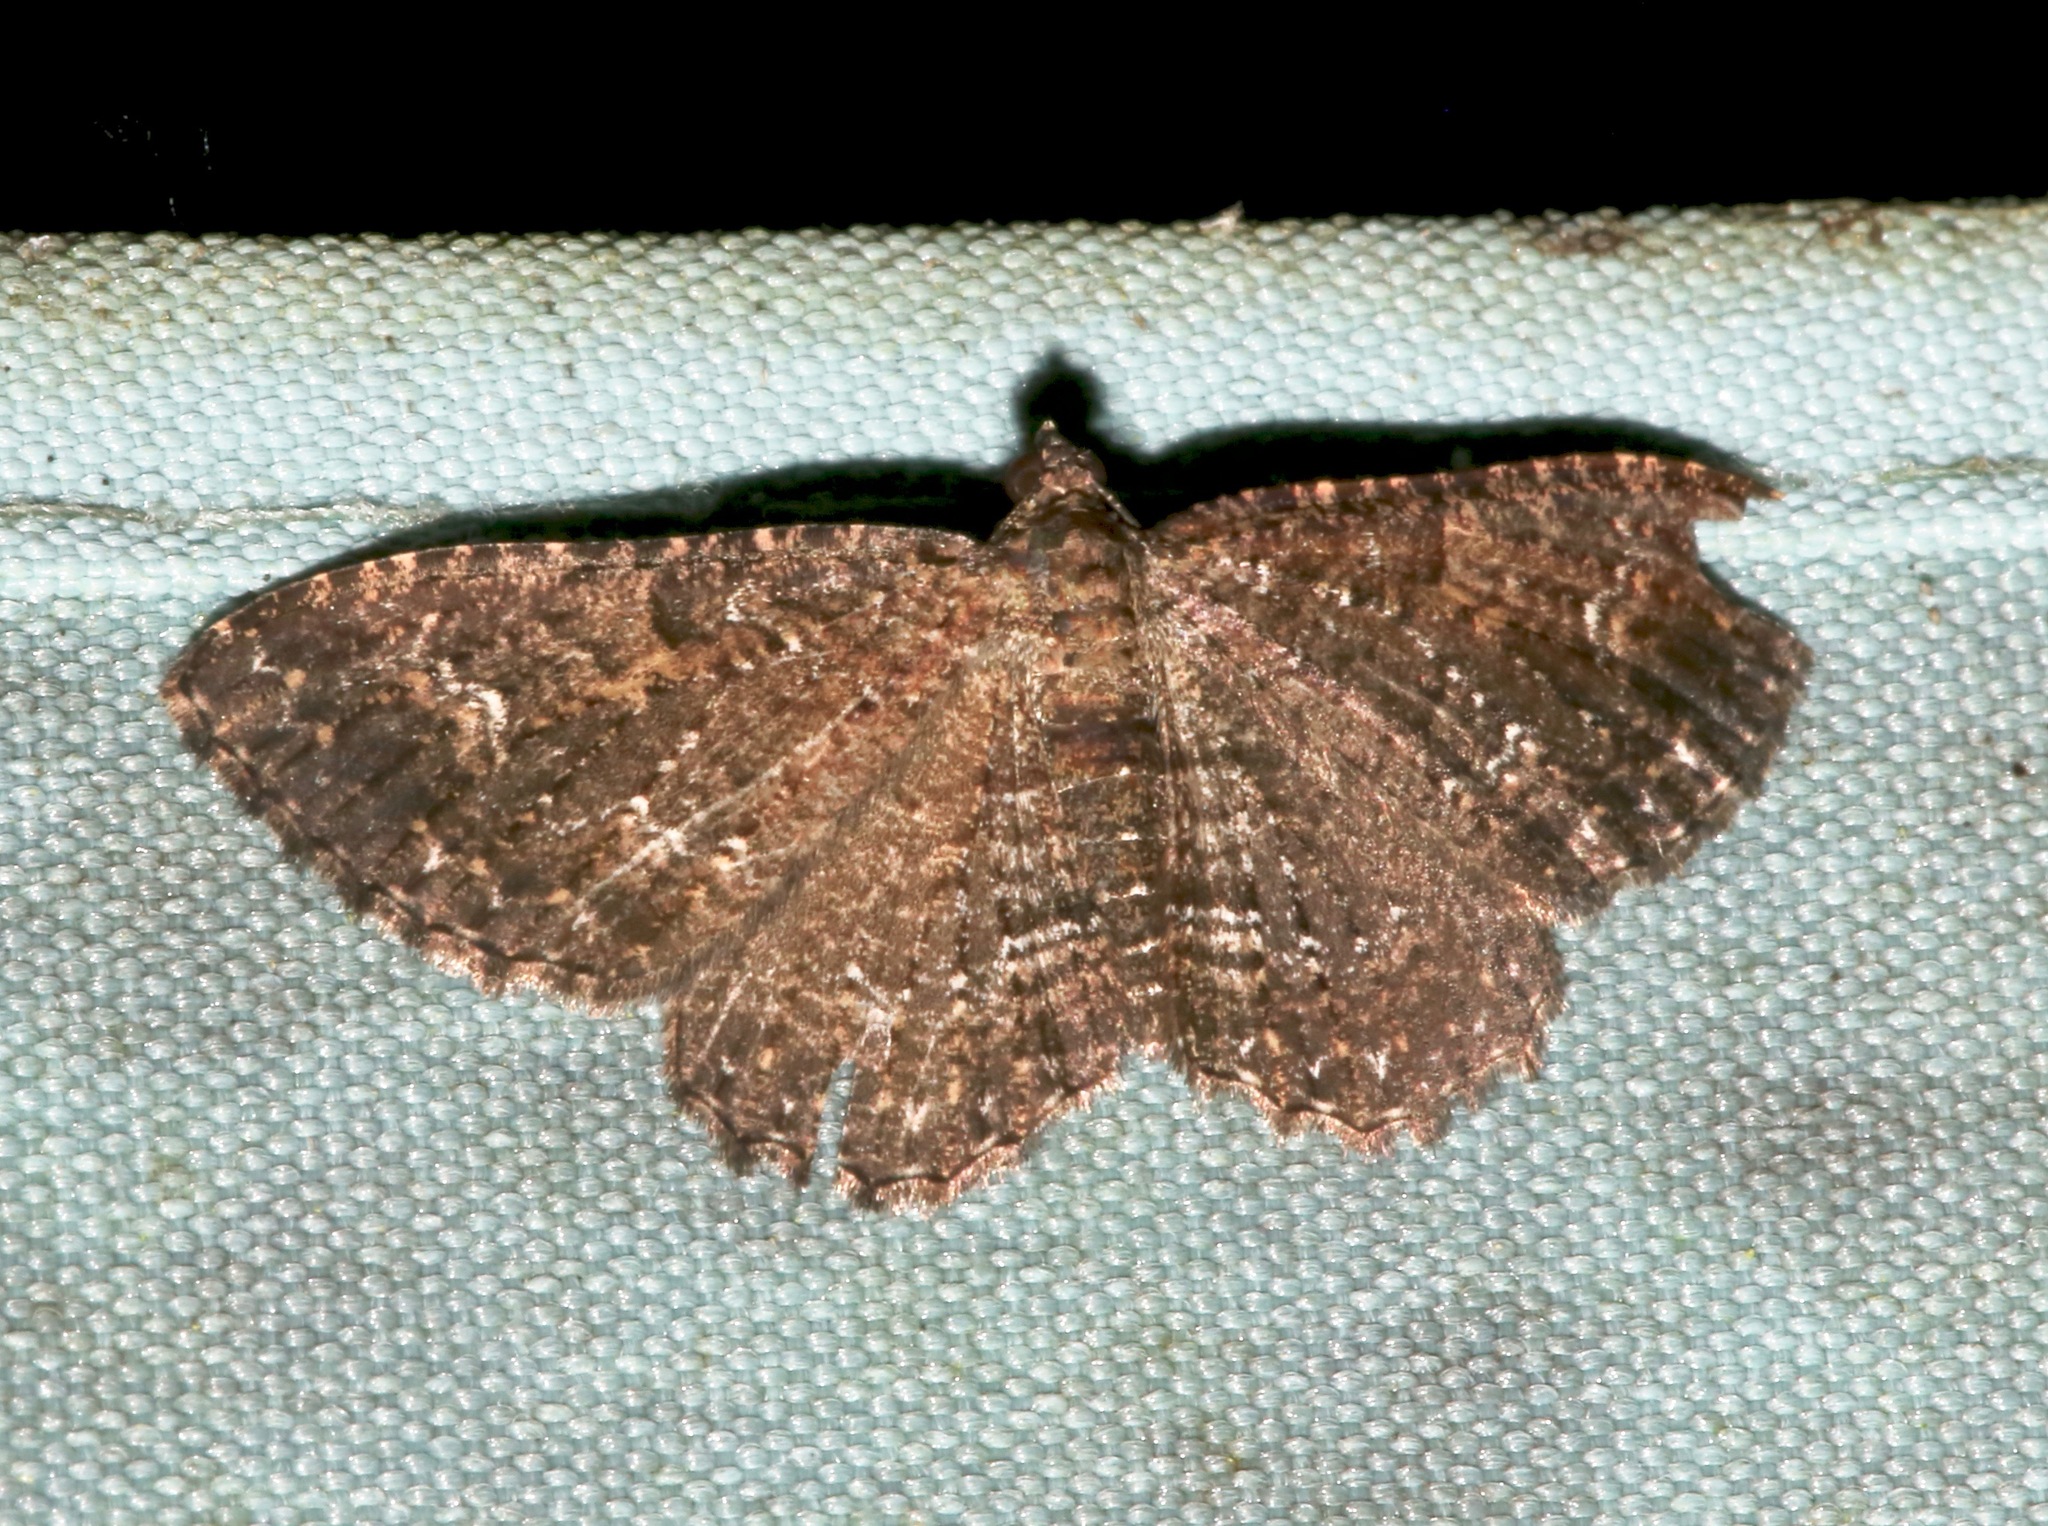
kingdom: Animalia
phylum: Arthropoda
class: Insecta
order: Lepidoptera
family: Geometridae
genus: Disclisioprocta
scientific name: Disclisioprocta stellata
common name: Somber carpet
